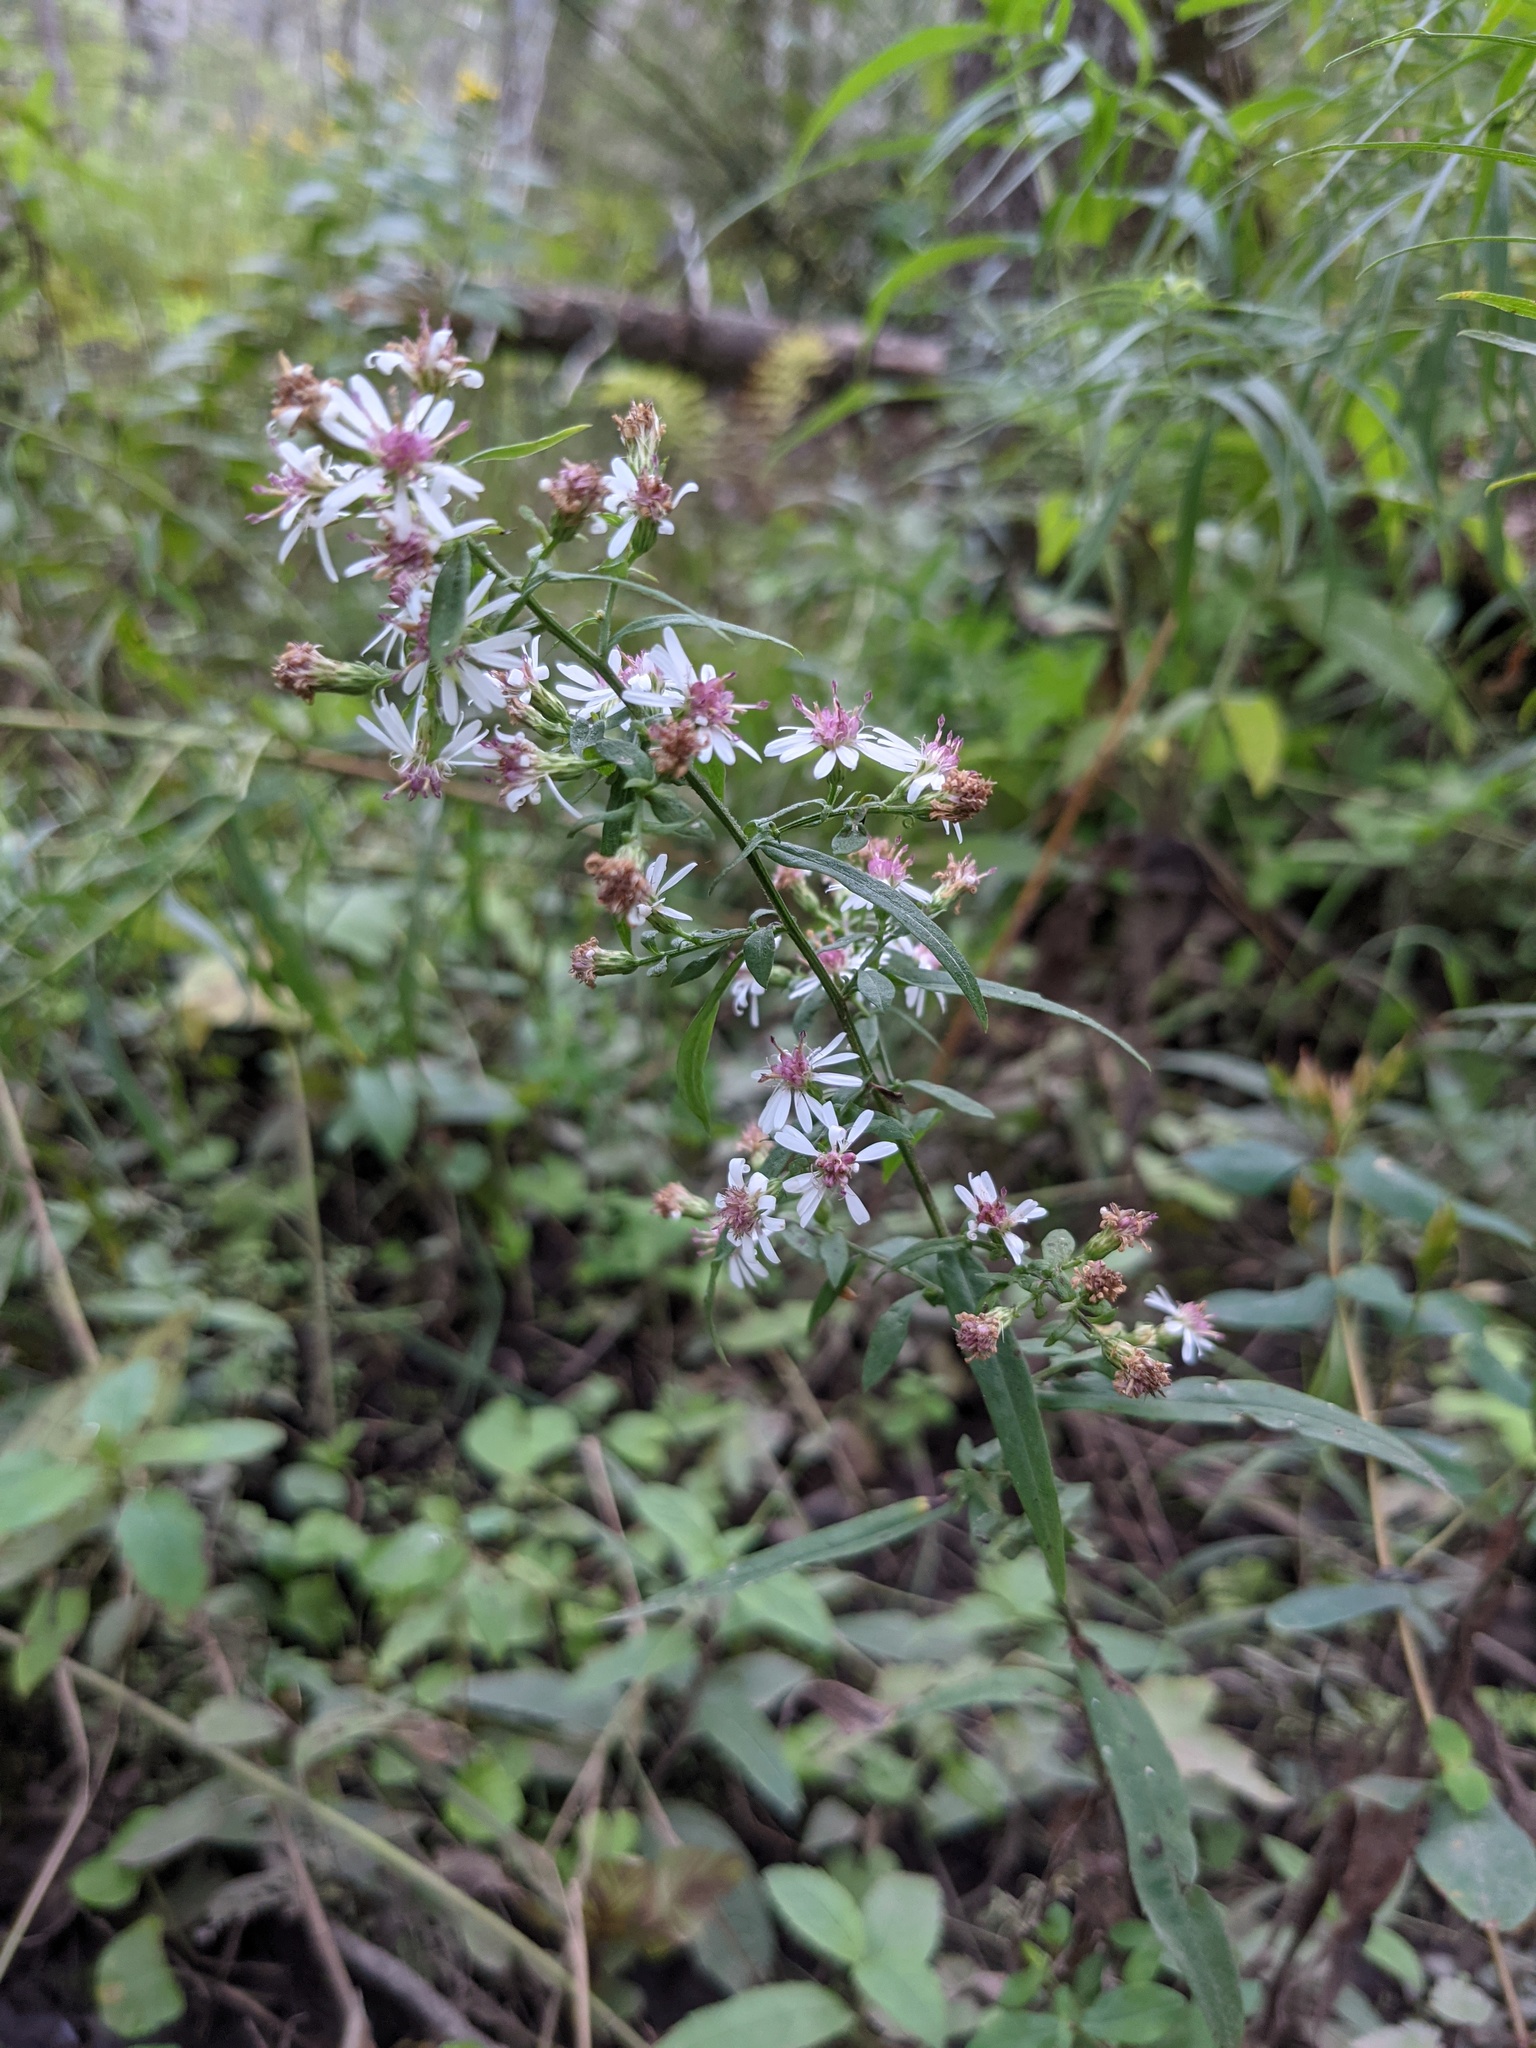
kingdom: Plantae
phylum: Tracheophyta
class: Magnoliopsida
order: Asterales
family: Asteraceae
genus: Symphyotrichum
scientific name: Symphyotrichum lateriflorum
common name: Calico aster
